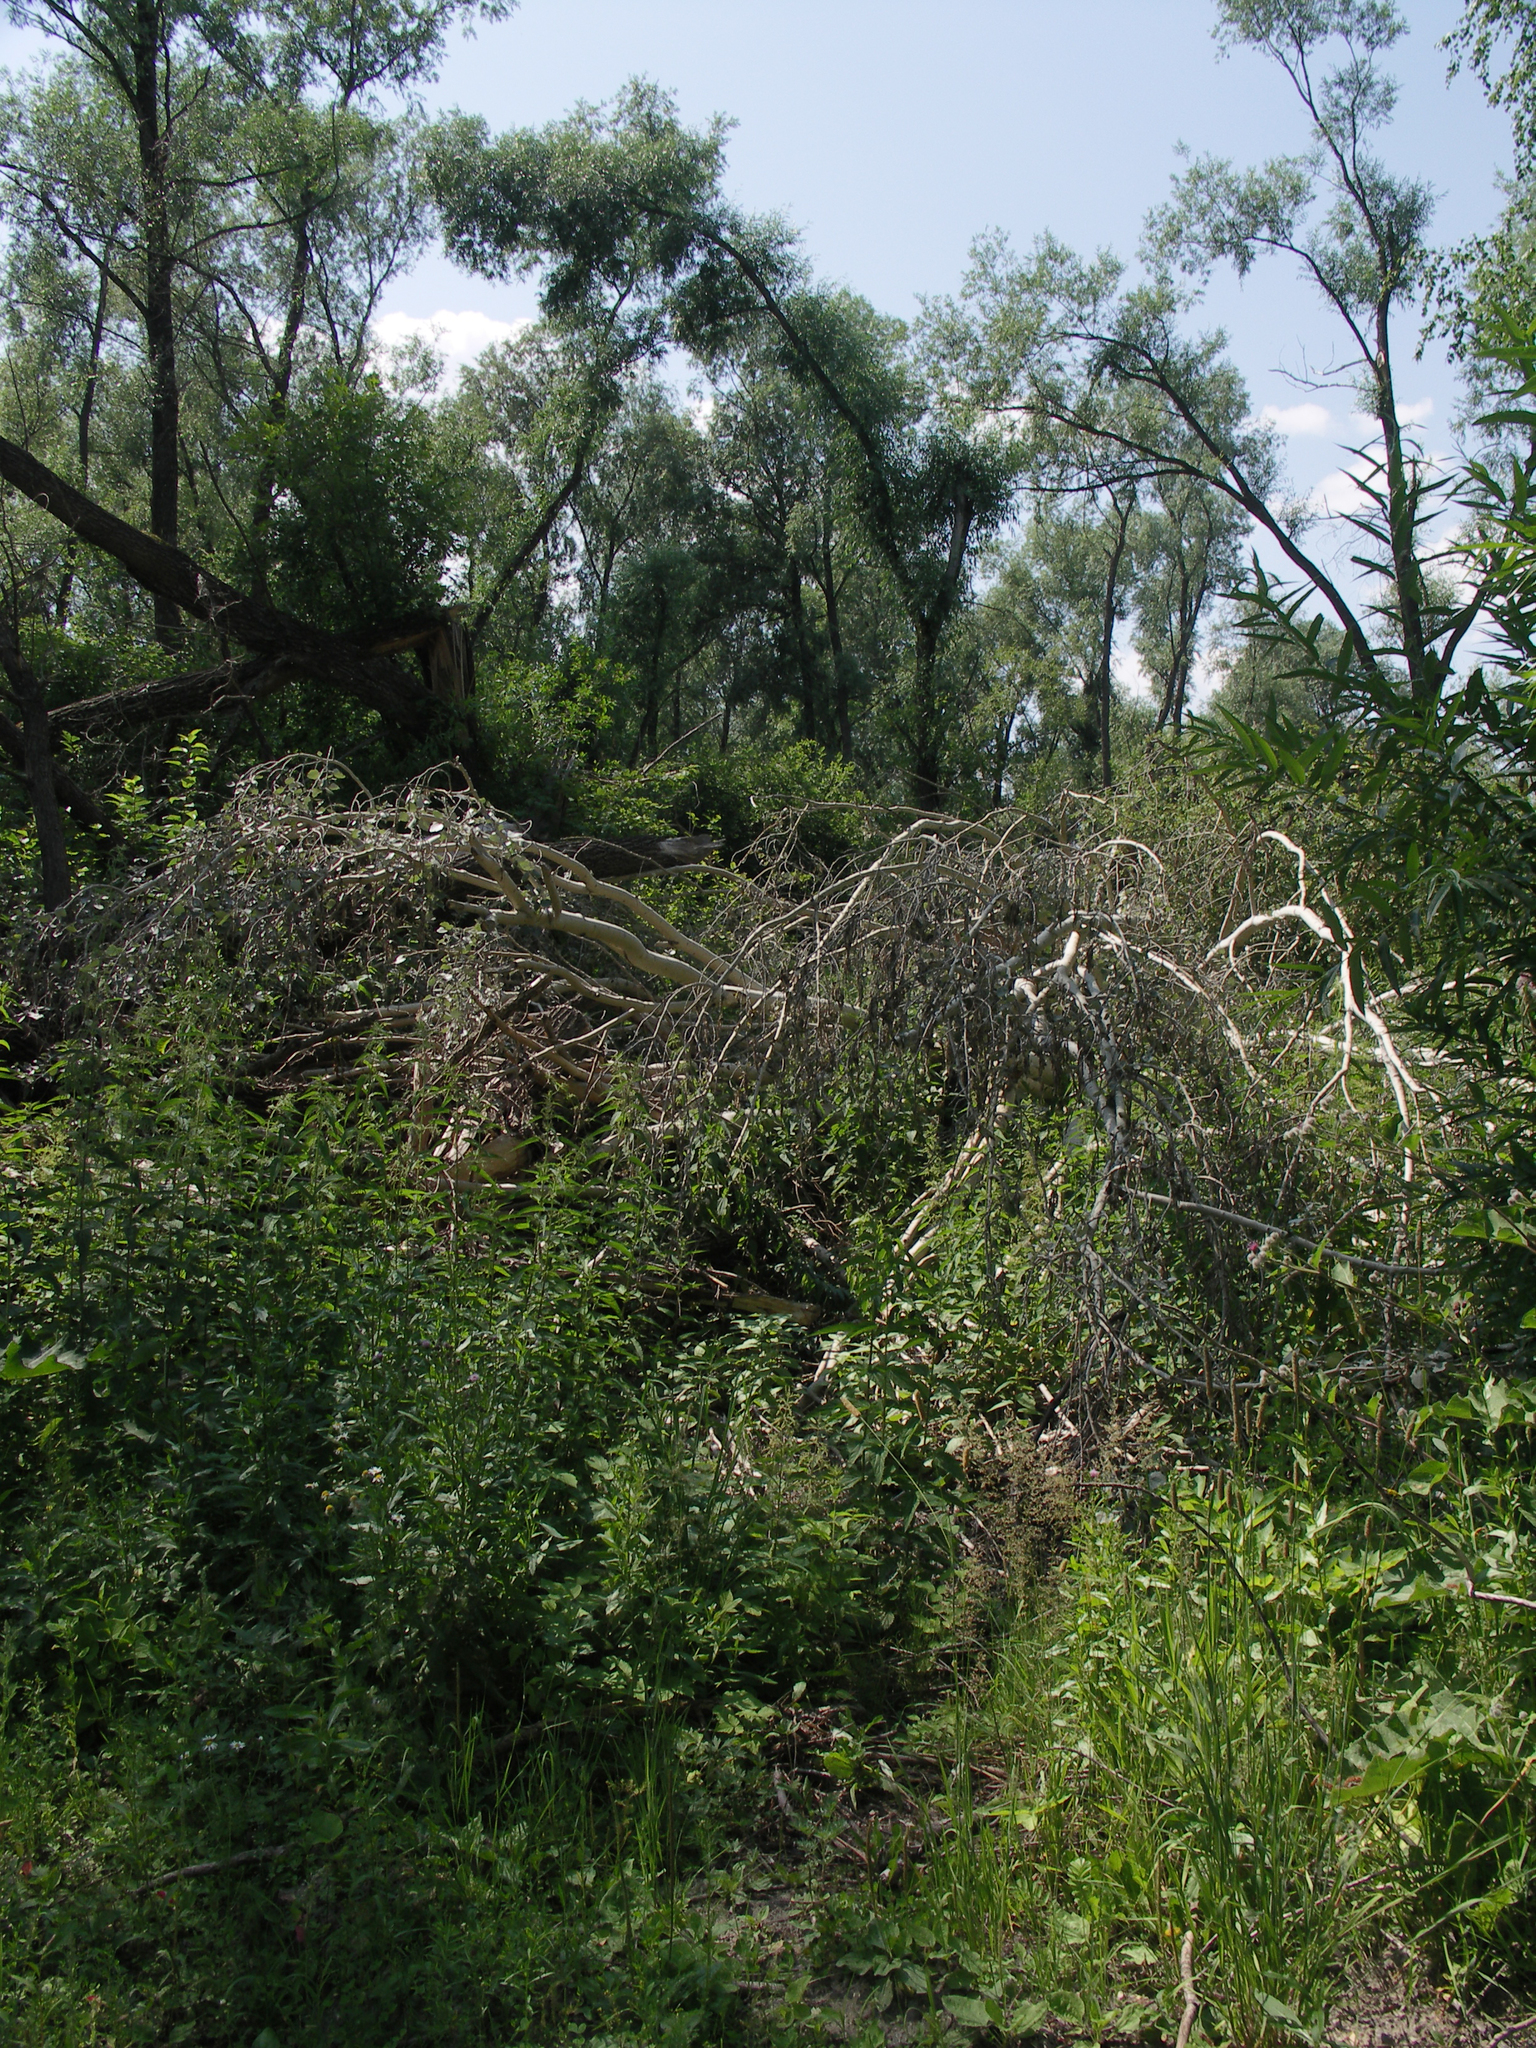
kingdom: Plantae
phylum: Tracheophyta
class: Magnoliopsida
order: Malpighiales
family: Salicaceae
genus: Salix
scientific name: Salix alba
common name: White willow
